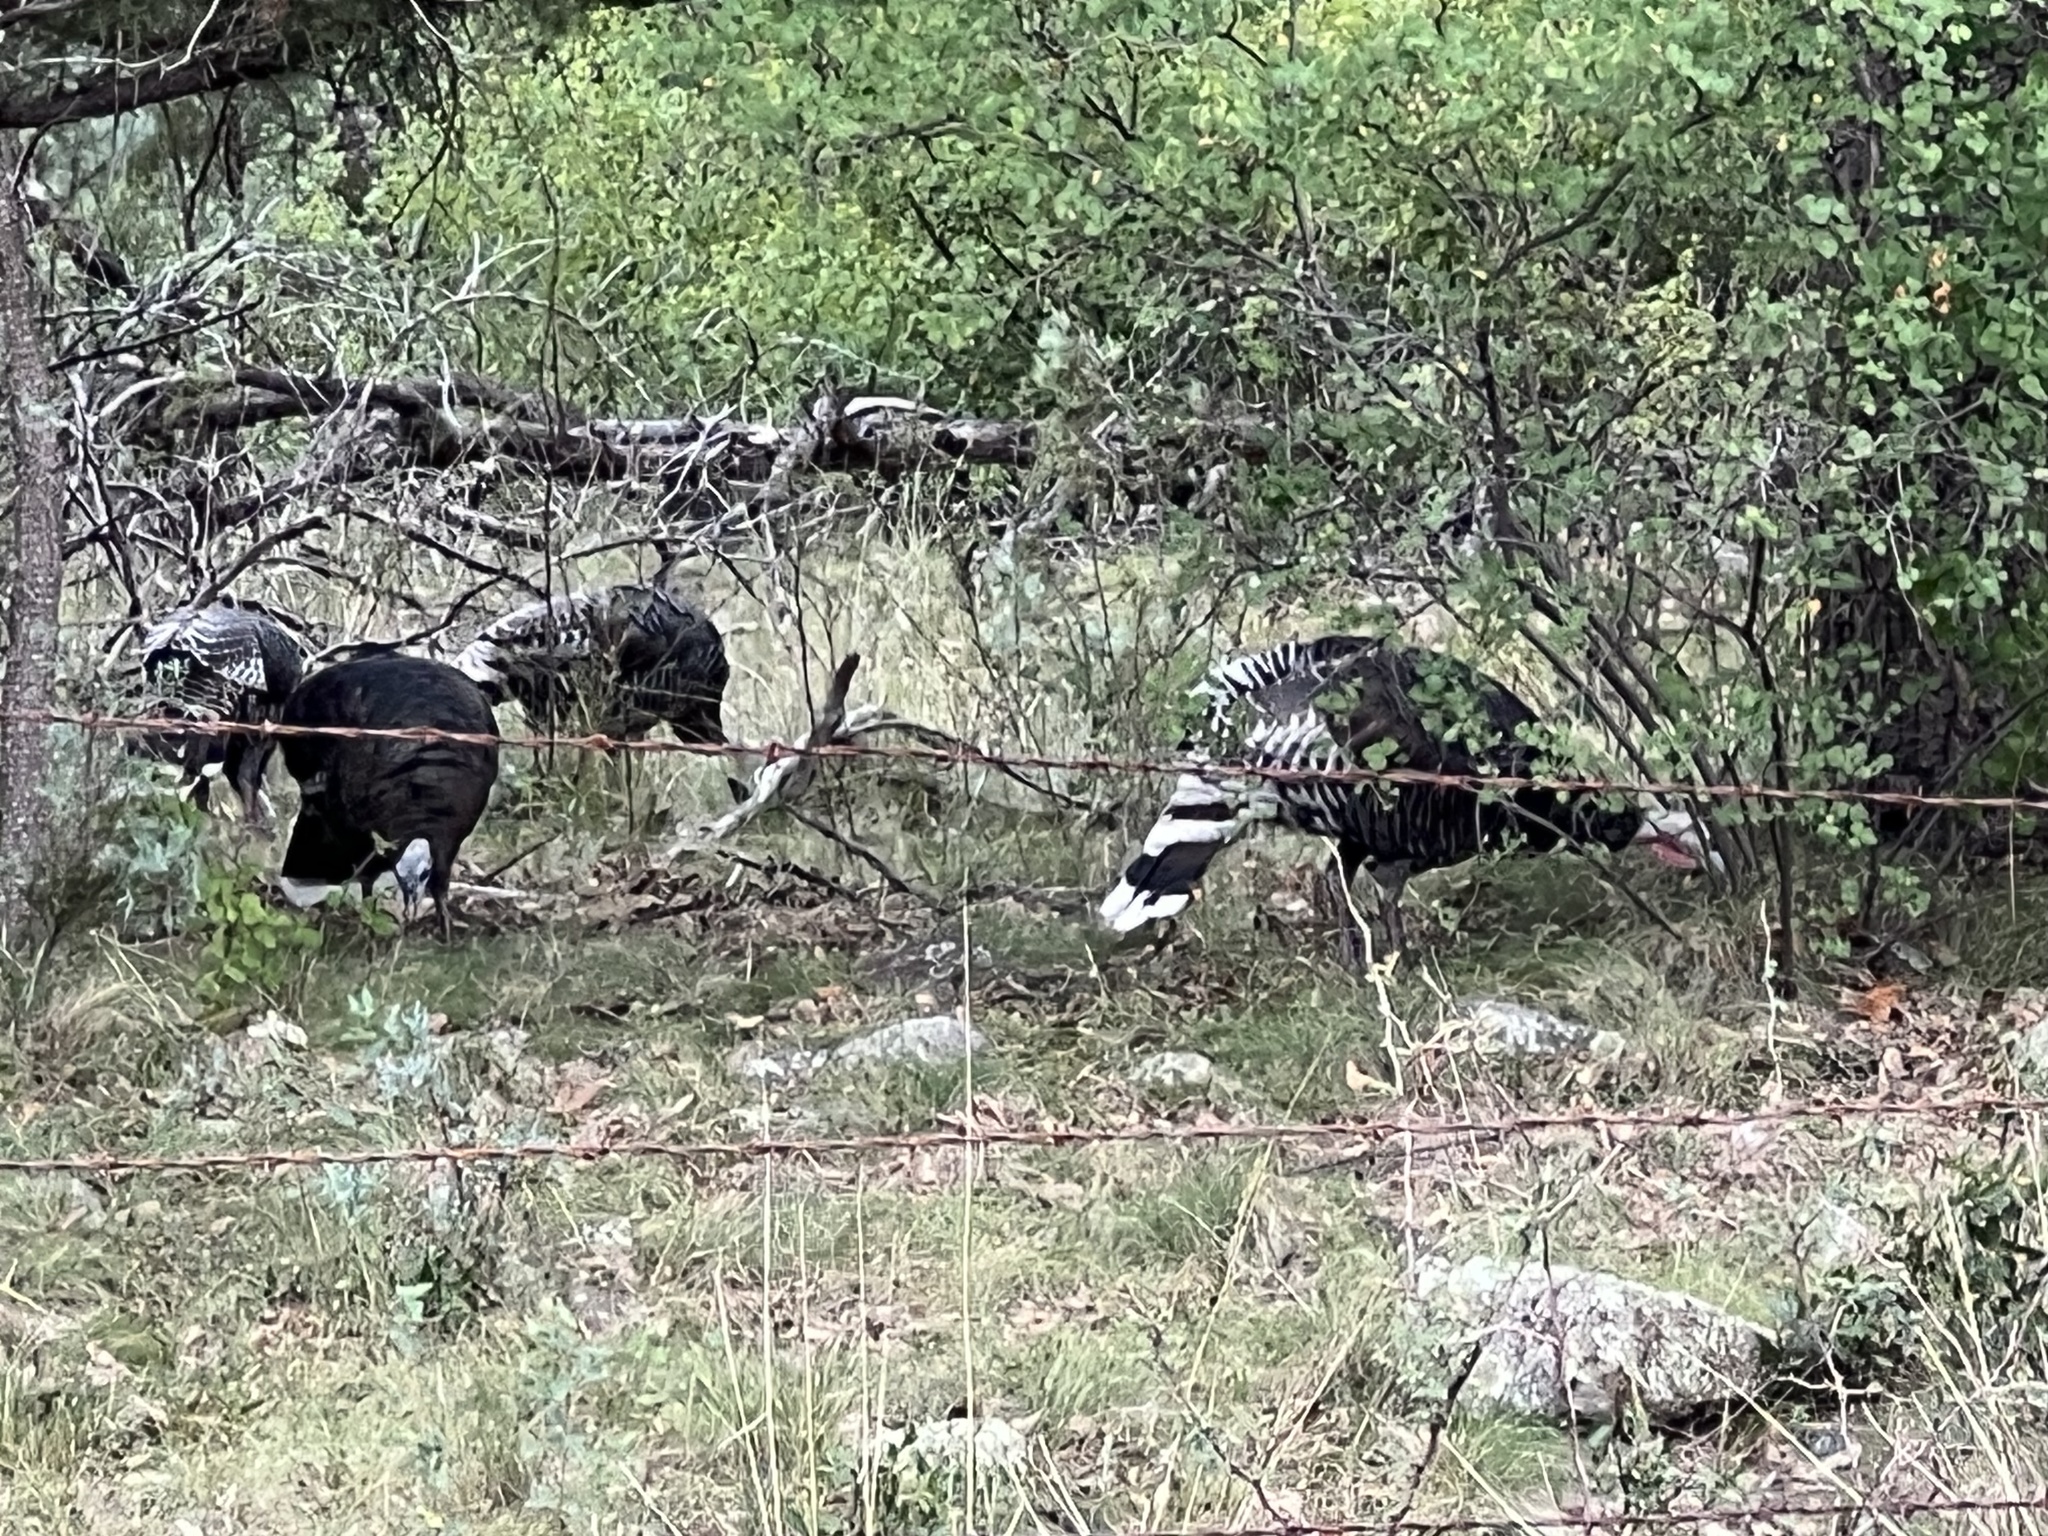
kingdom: Animalia
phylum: Chordata
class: Aves
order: Galliformes
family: Phasianidae
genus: Meleagris
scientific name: Meleagris gallopavo
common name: Wild turkey
